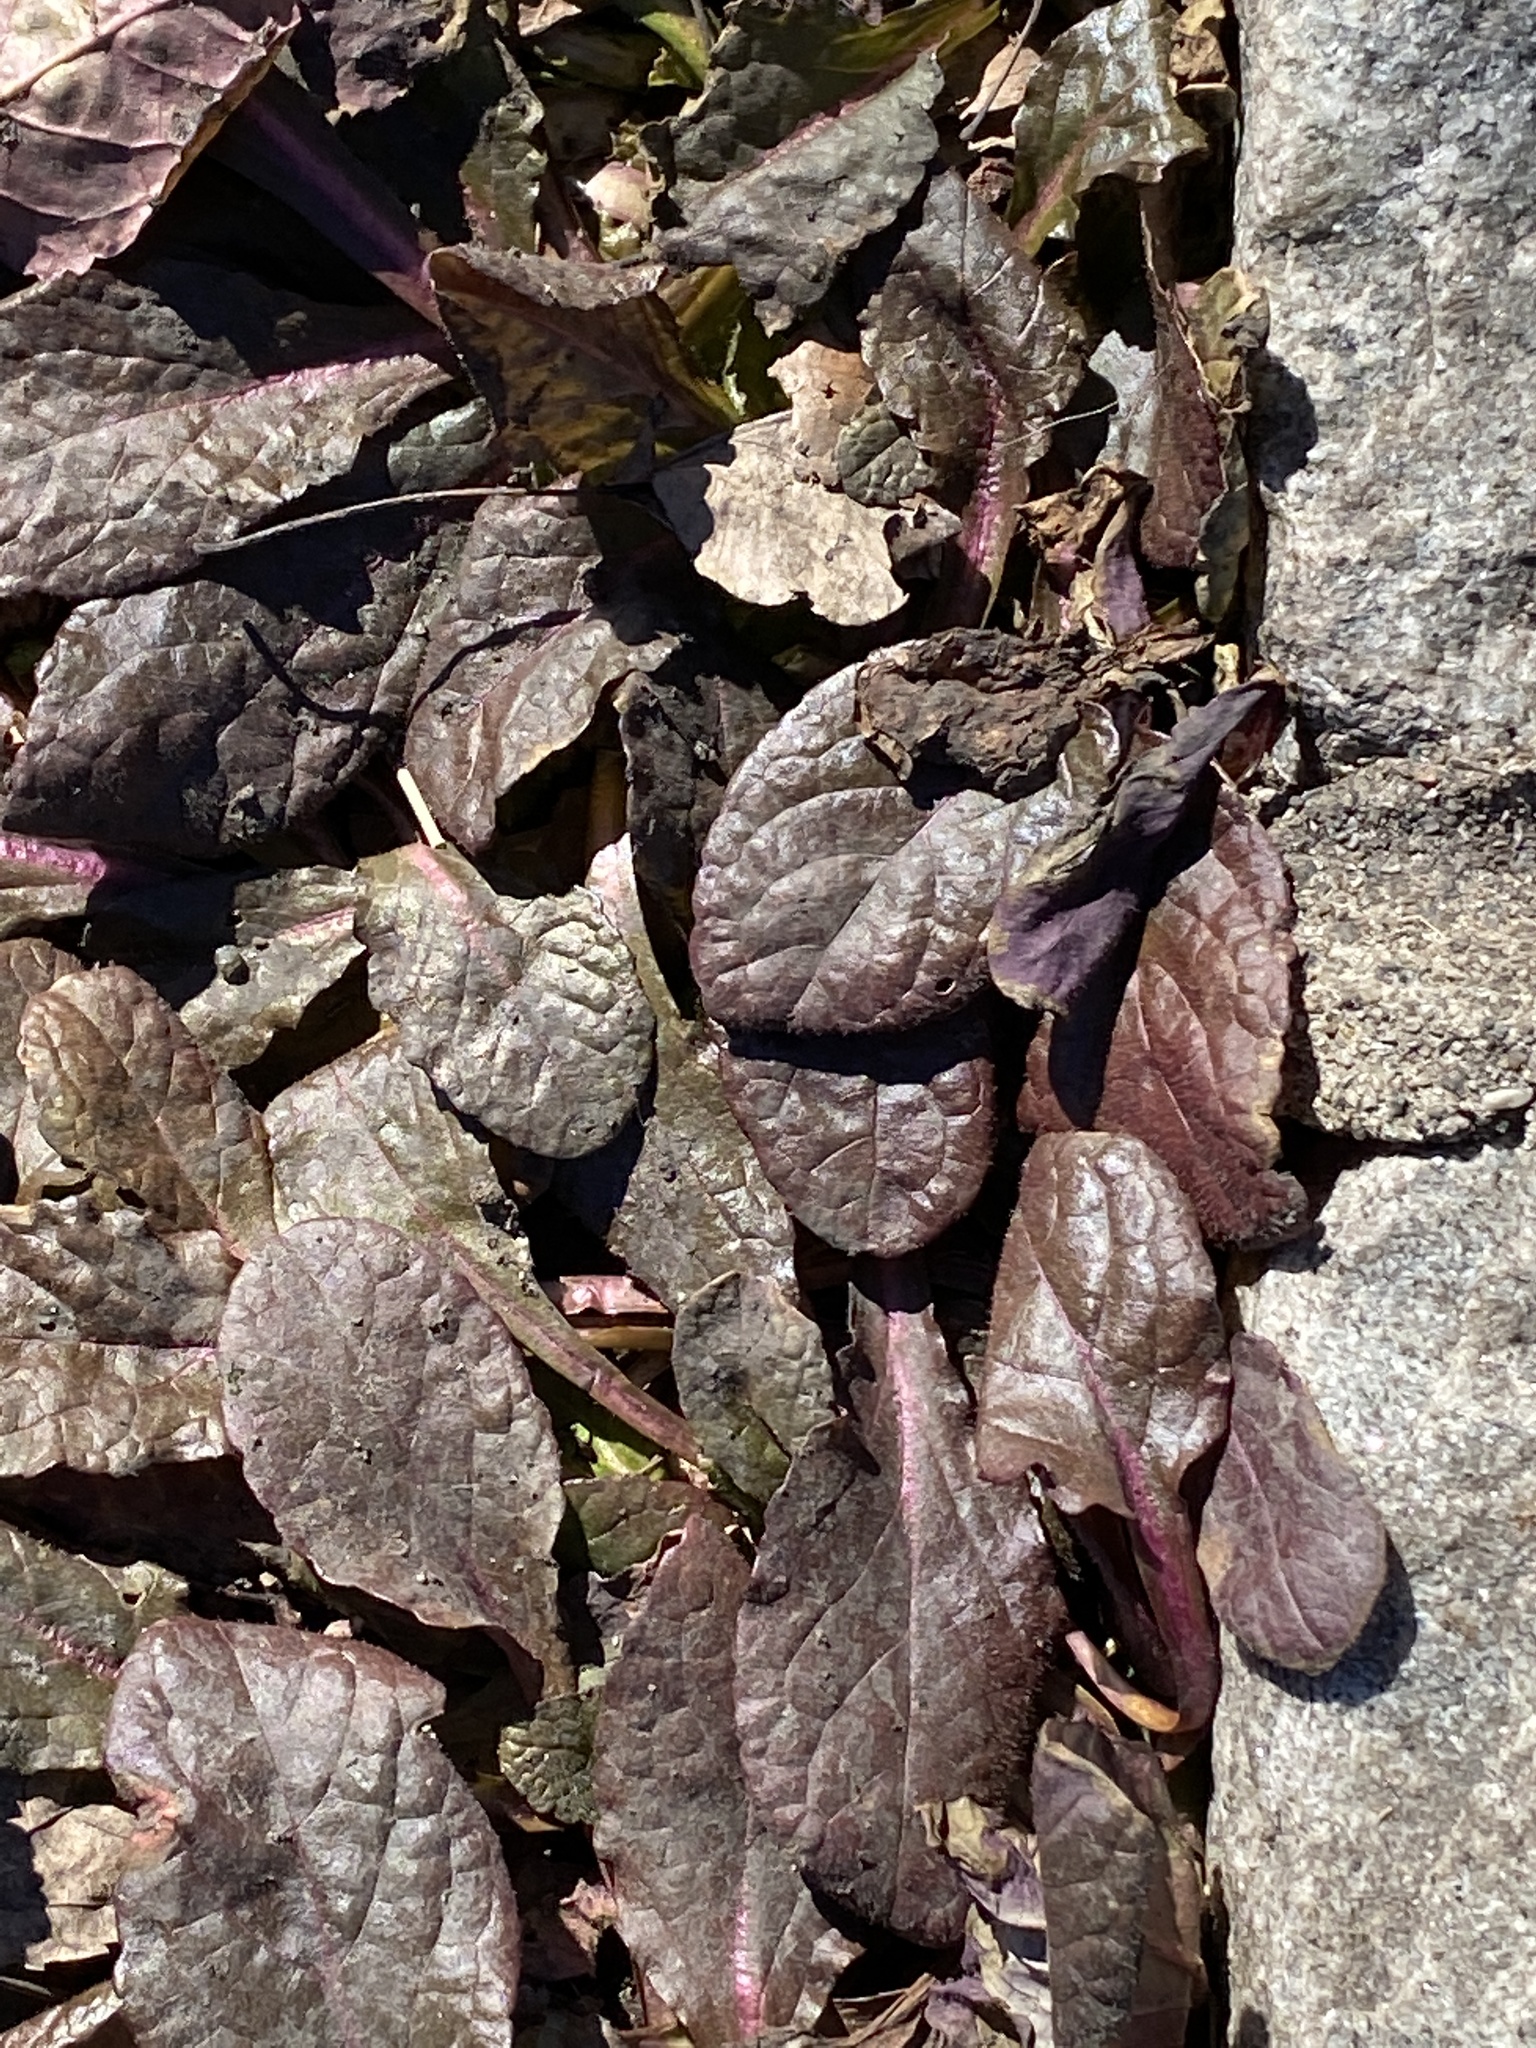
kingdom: Plantae
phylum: Tracheophyta
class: Magnoliopsida
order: Lamiales
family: Lamiaceae
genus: Ajuga
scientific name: Ajuga reptans
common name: Bugle
